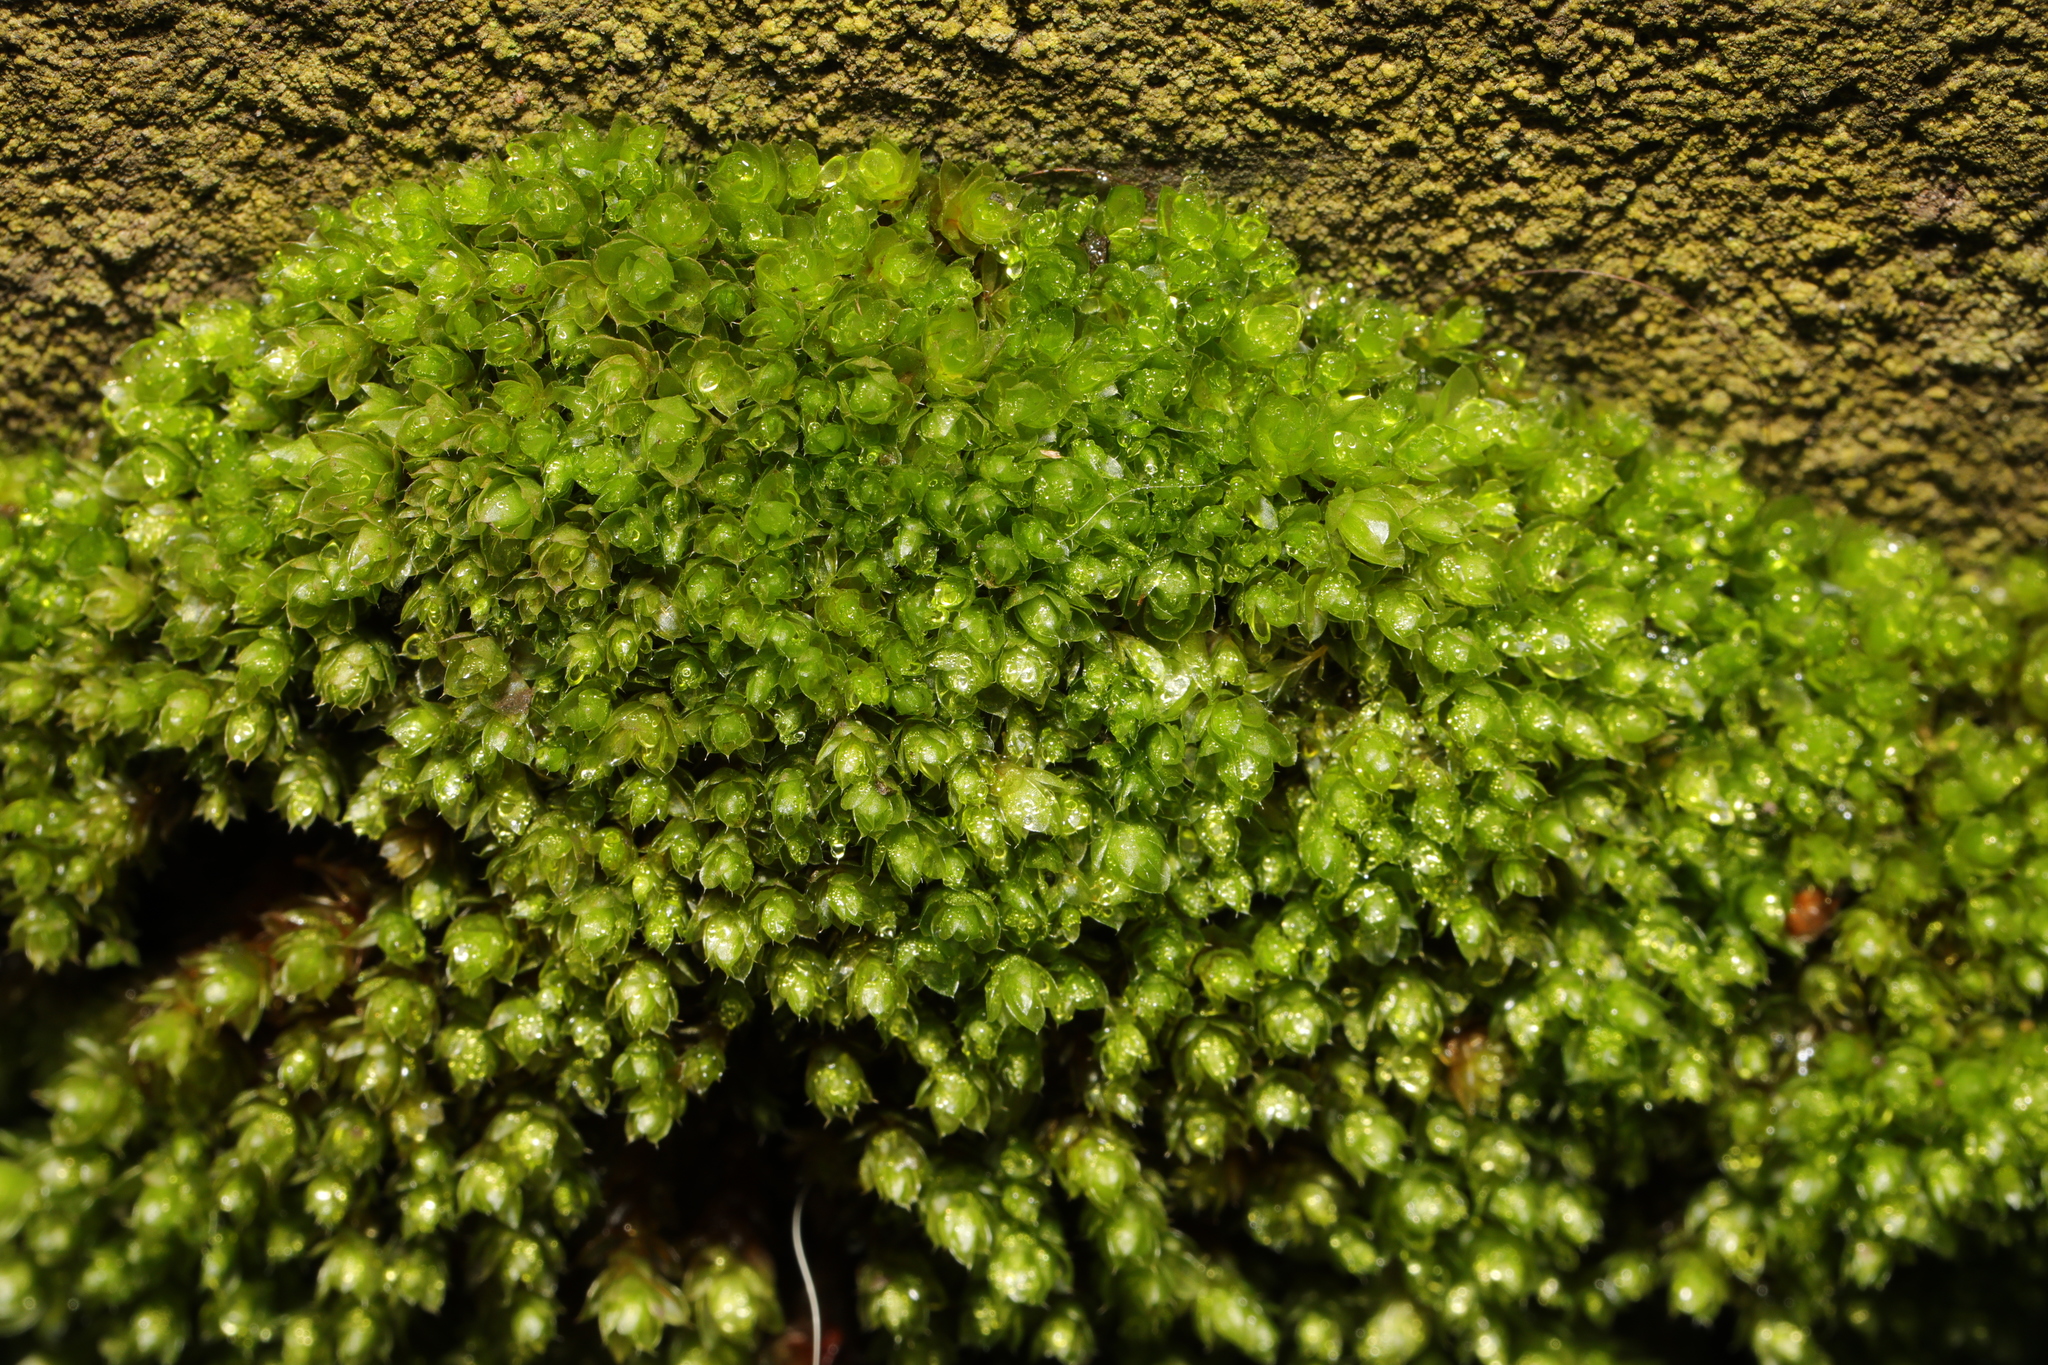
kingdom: Plantae
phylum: Bryophyta
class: Bryopsida
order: Bryales
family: Bryaceae
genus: Rosulabryum
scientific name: Rosulabryum capillare
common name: Capillary thread-moss
